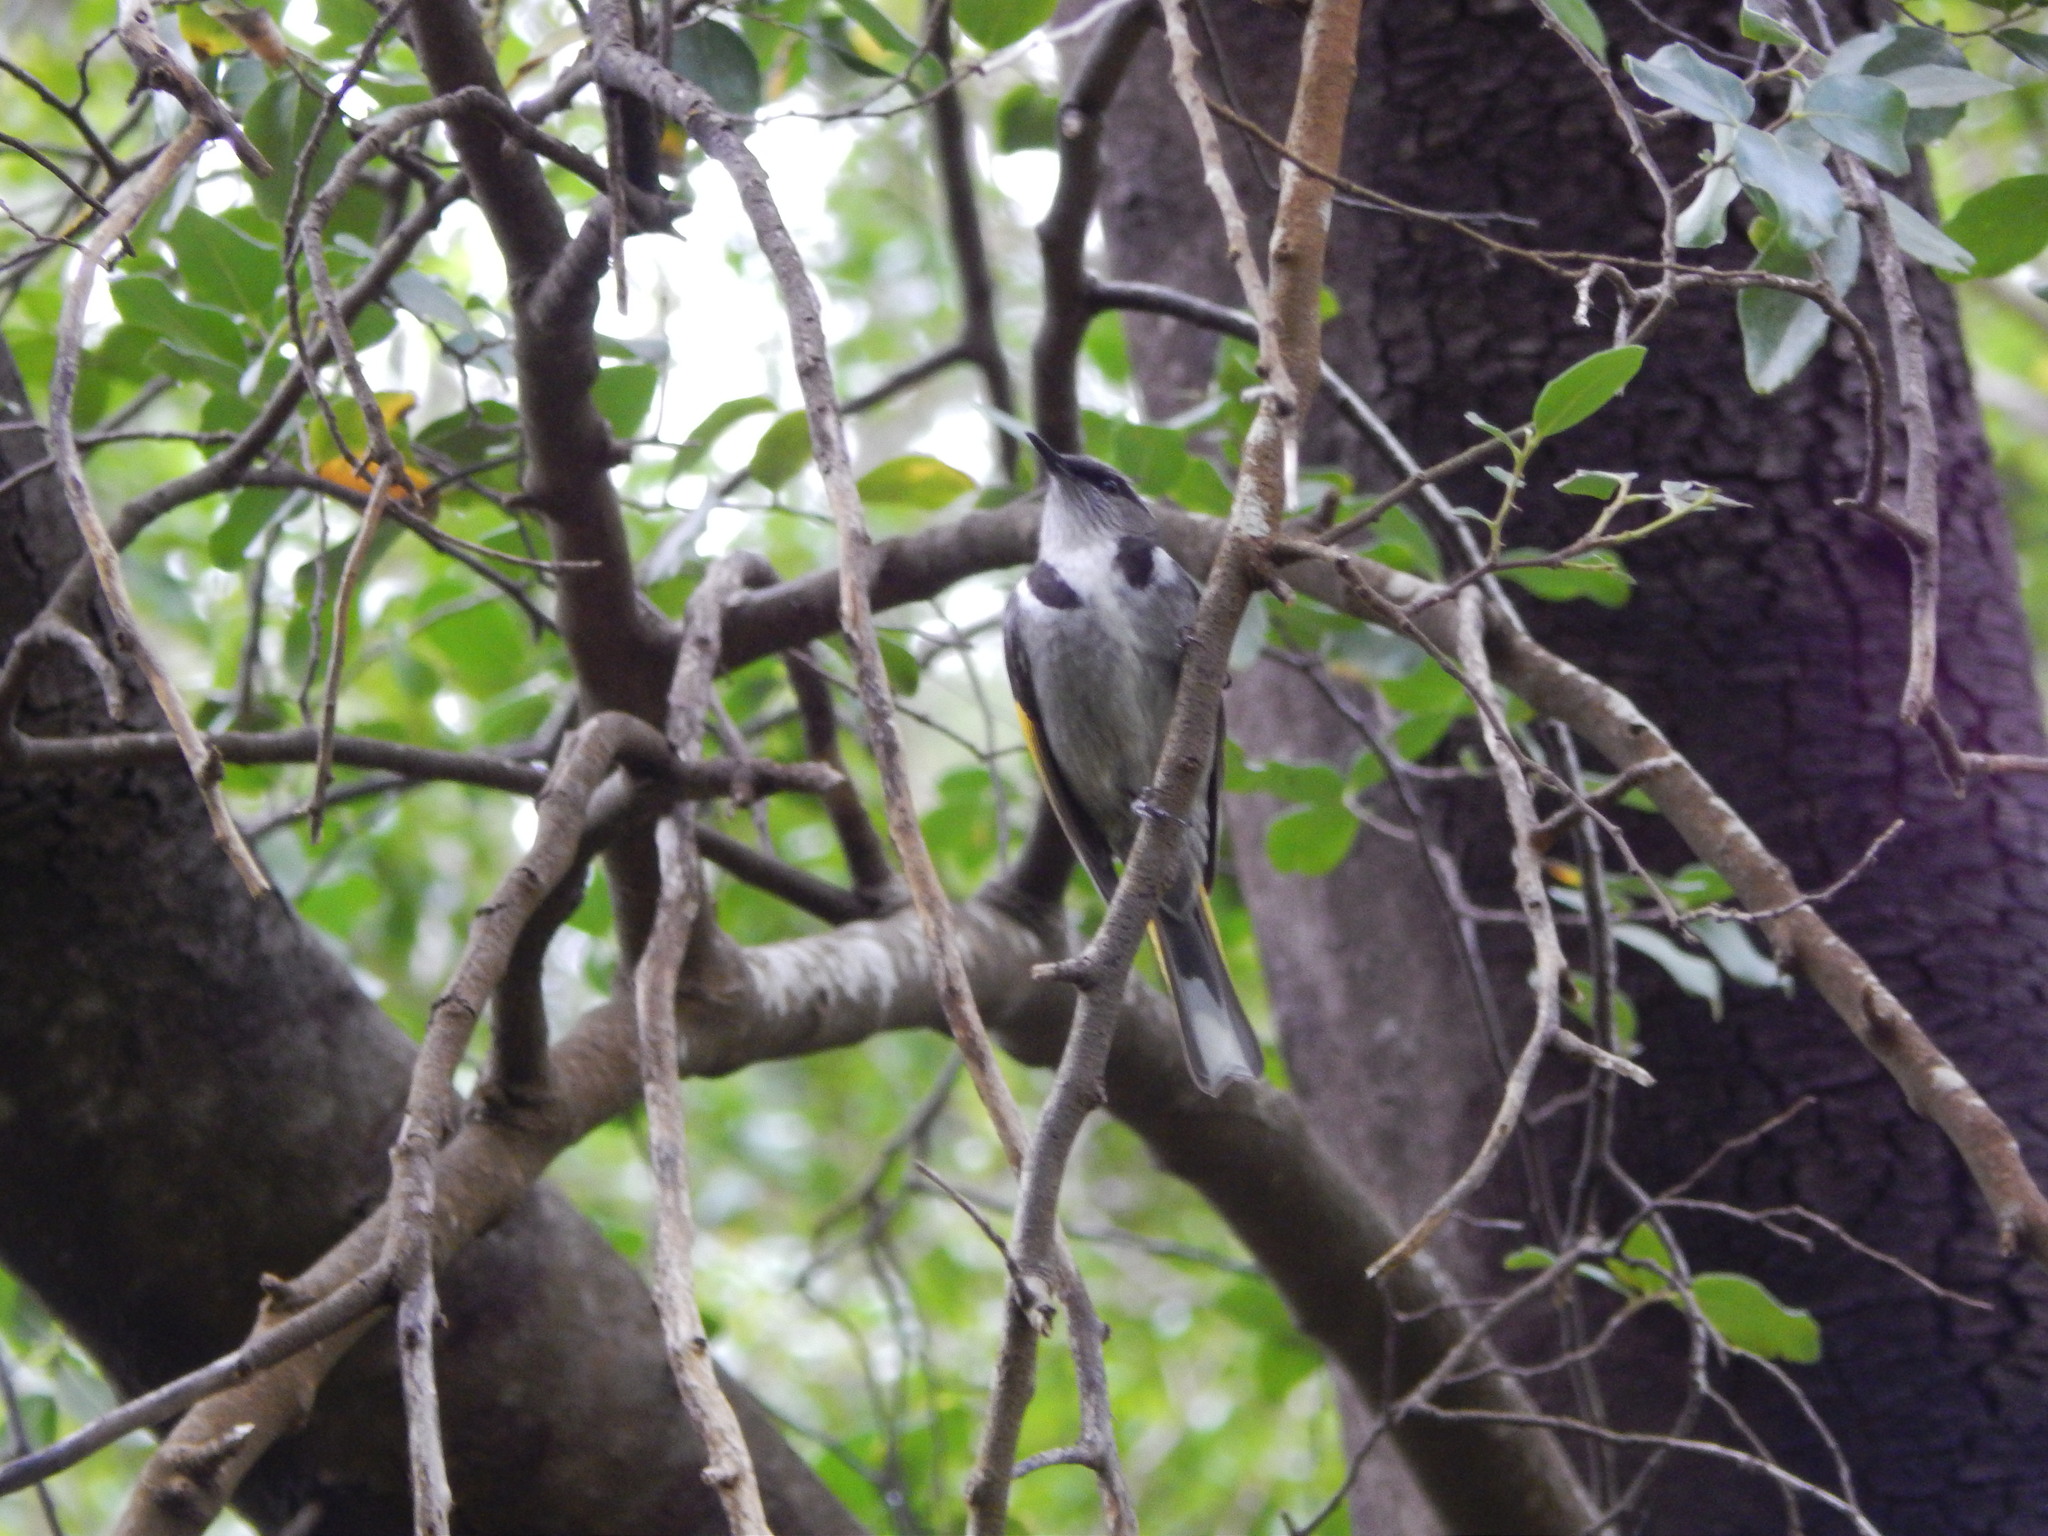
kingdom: Animalia
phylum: Chordata
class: Aves
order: Passeriformes
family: Meliphagidae
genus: Phylidonyris
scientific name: Phylidonyris pyrrhopterus
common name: Crescent honeyeater
